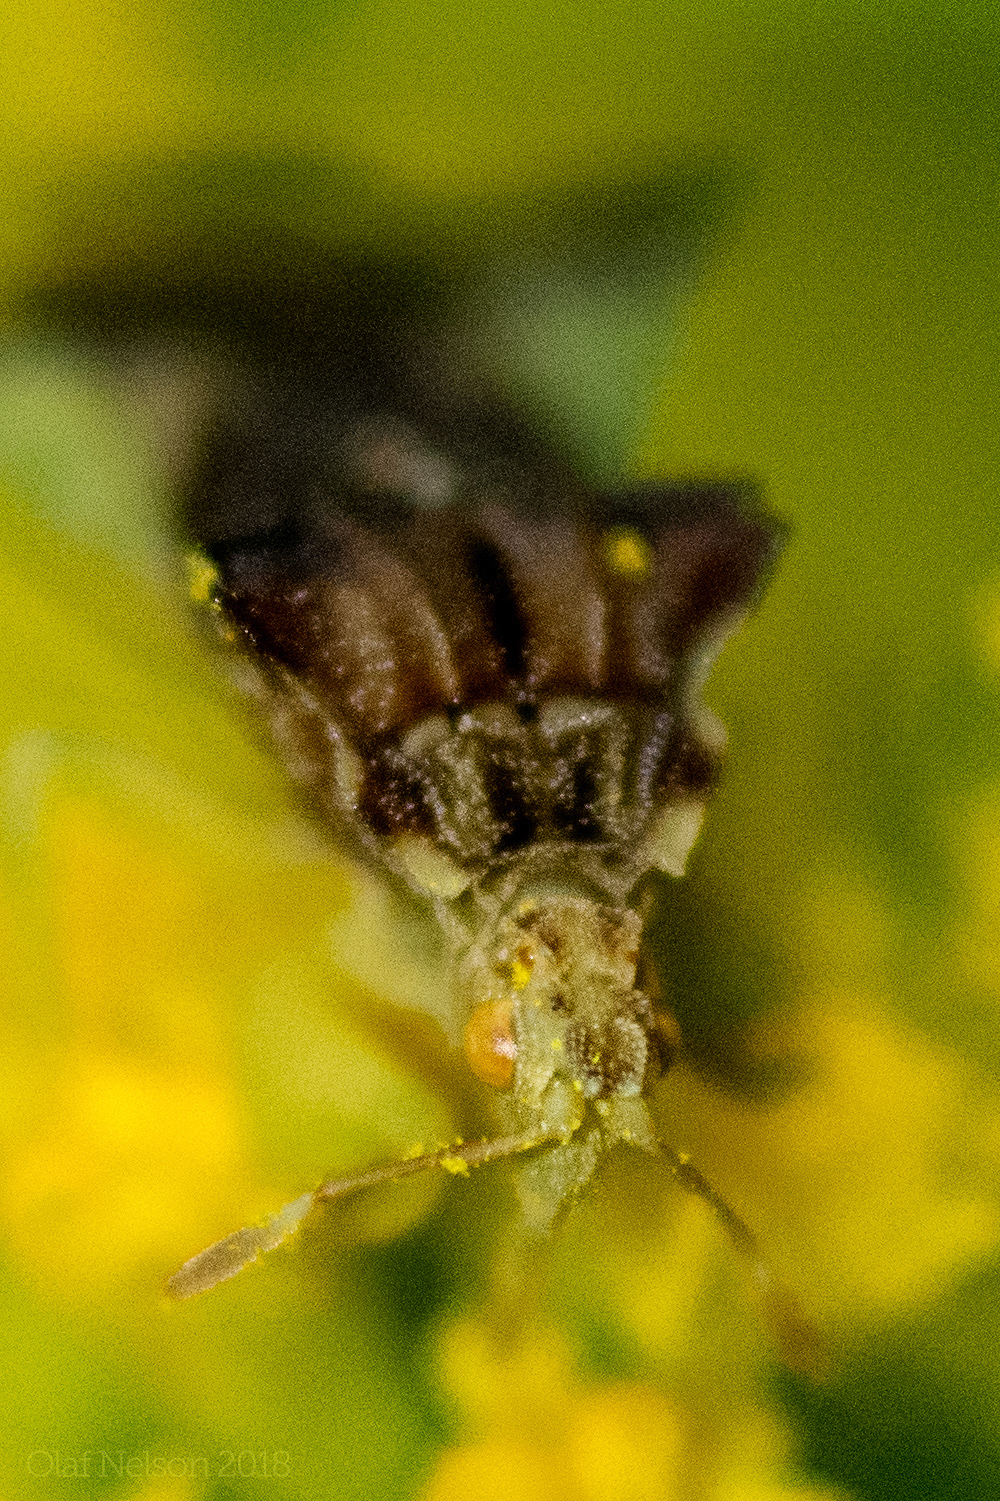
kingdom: Animalia
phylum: Arthropoda
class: Insecta
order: Hemiptera
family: Reduviidae
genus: Phymata
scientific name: Phymata pennsylvanica
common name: Pennsylvania ambush bug
